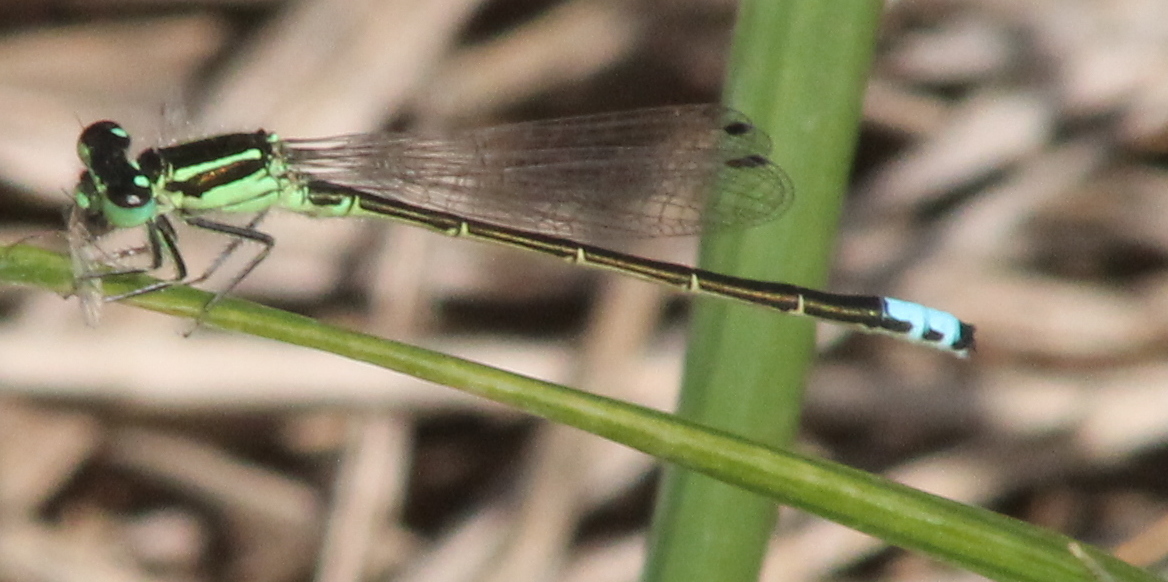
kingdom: Animalia
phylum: Arthropoda
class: Insecta
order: Odonata
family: Coenagrionidae
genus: Ischnura
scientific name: Ischnura verticalis
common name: Eastern forktail
